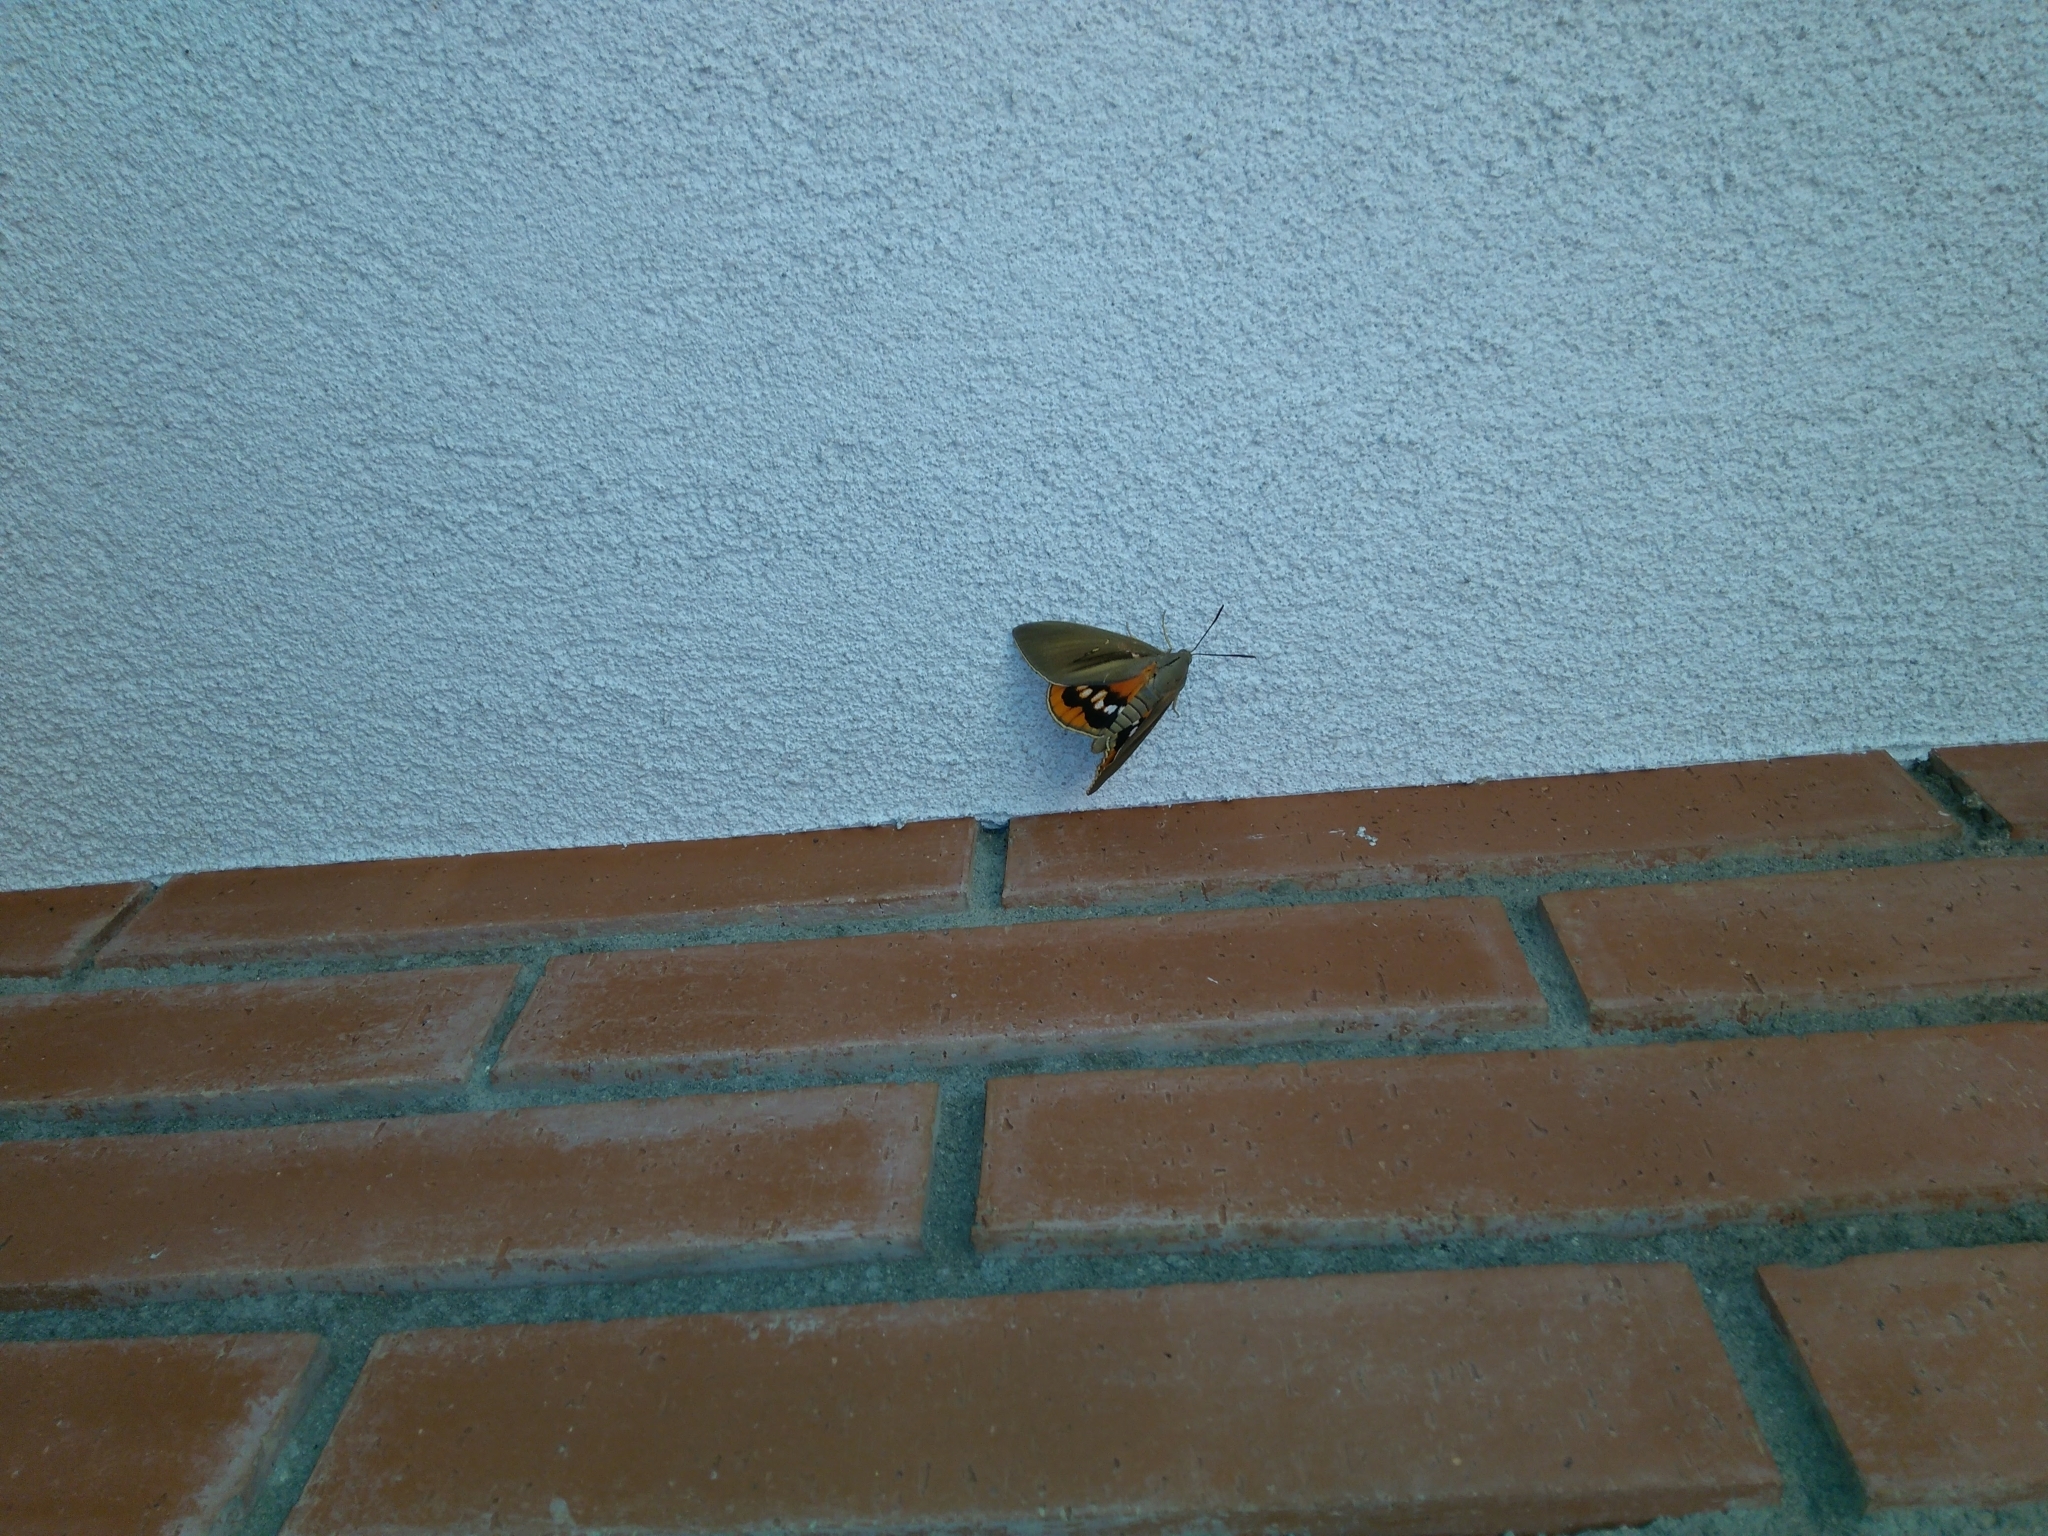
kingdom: Animalia
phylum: Arthropoda
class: Insecta
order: Lepidoptera
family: Castniidae
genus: Paysandisia
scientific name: Paysandisia archon
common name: Palm moth
